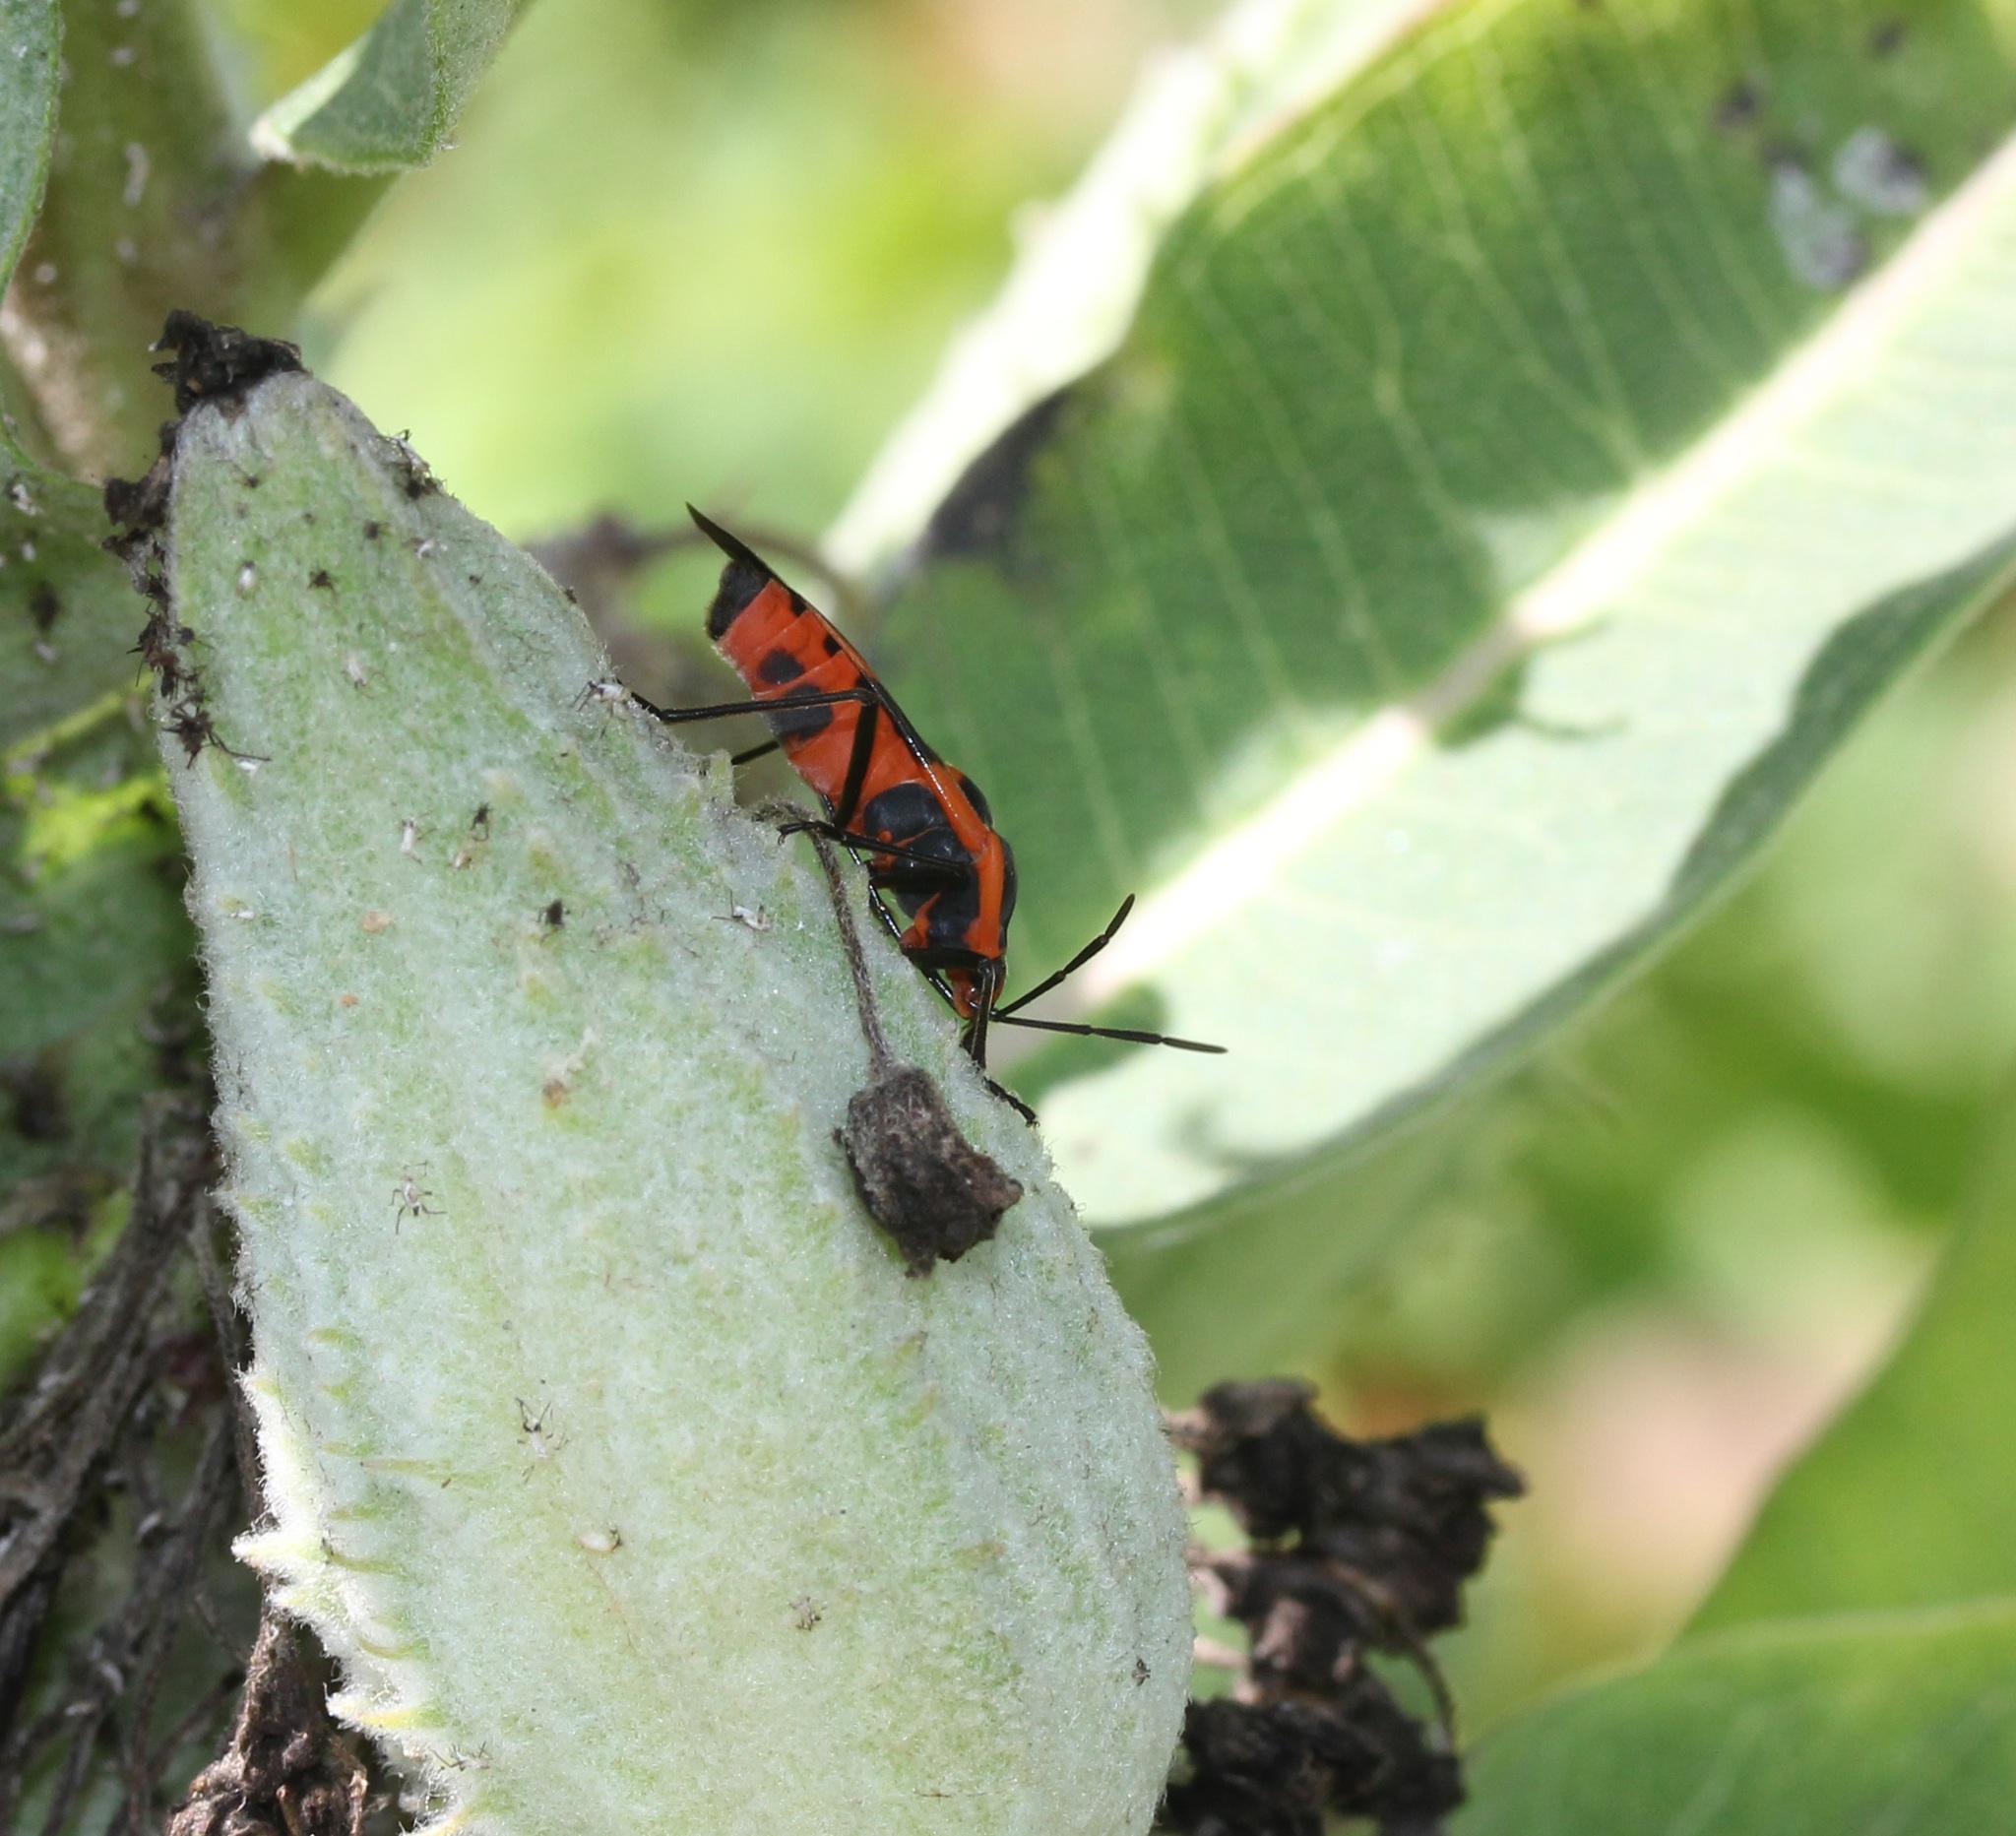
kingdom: Animalia
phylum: Arthropoda
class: Insecta
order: Hemiptera
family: Lygaeidae
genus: Oncopeltus
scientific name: Oncopeltus fasciatus
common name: Large milkweed bug
